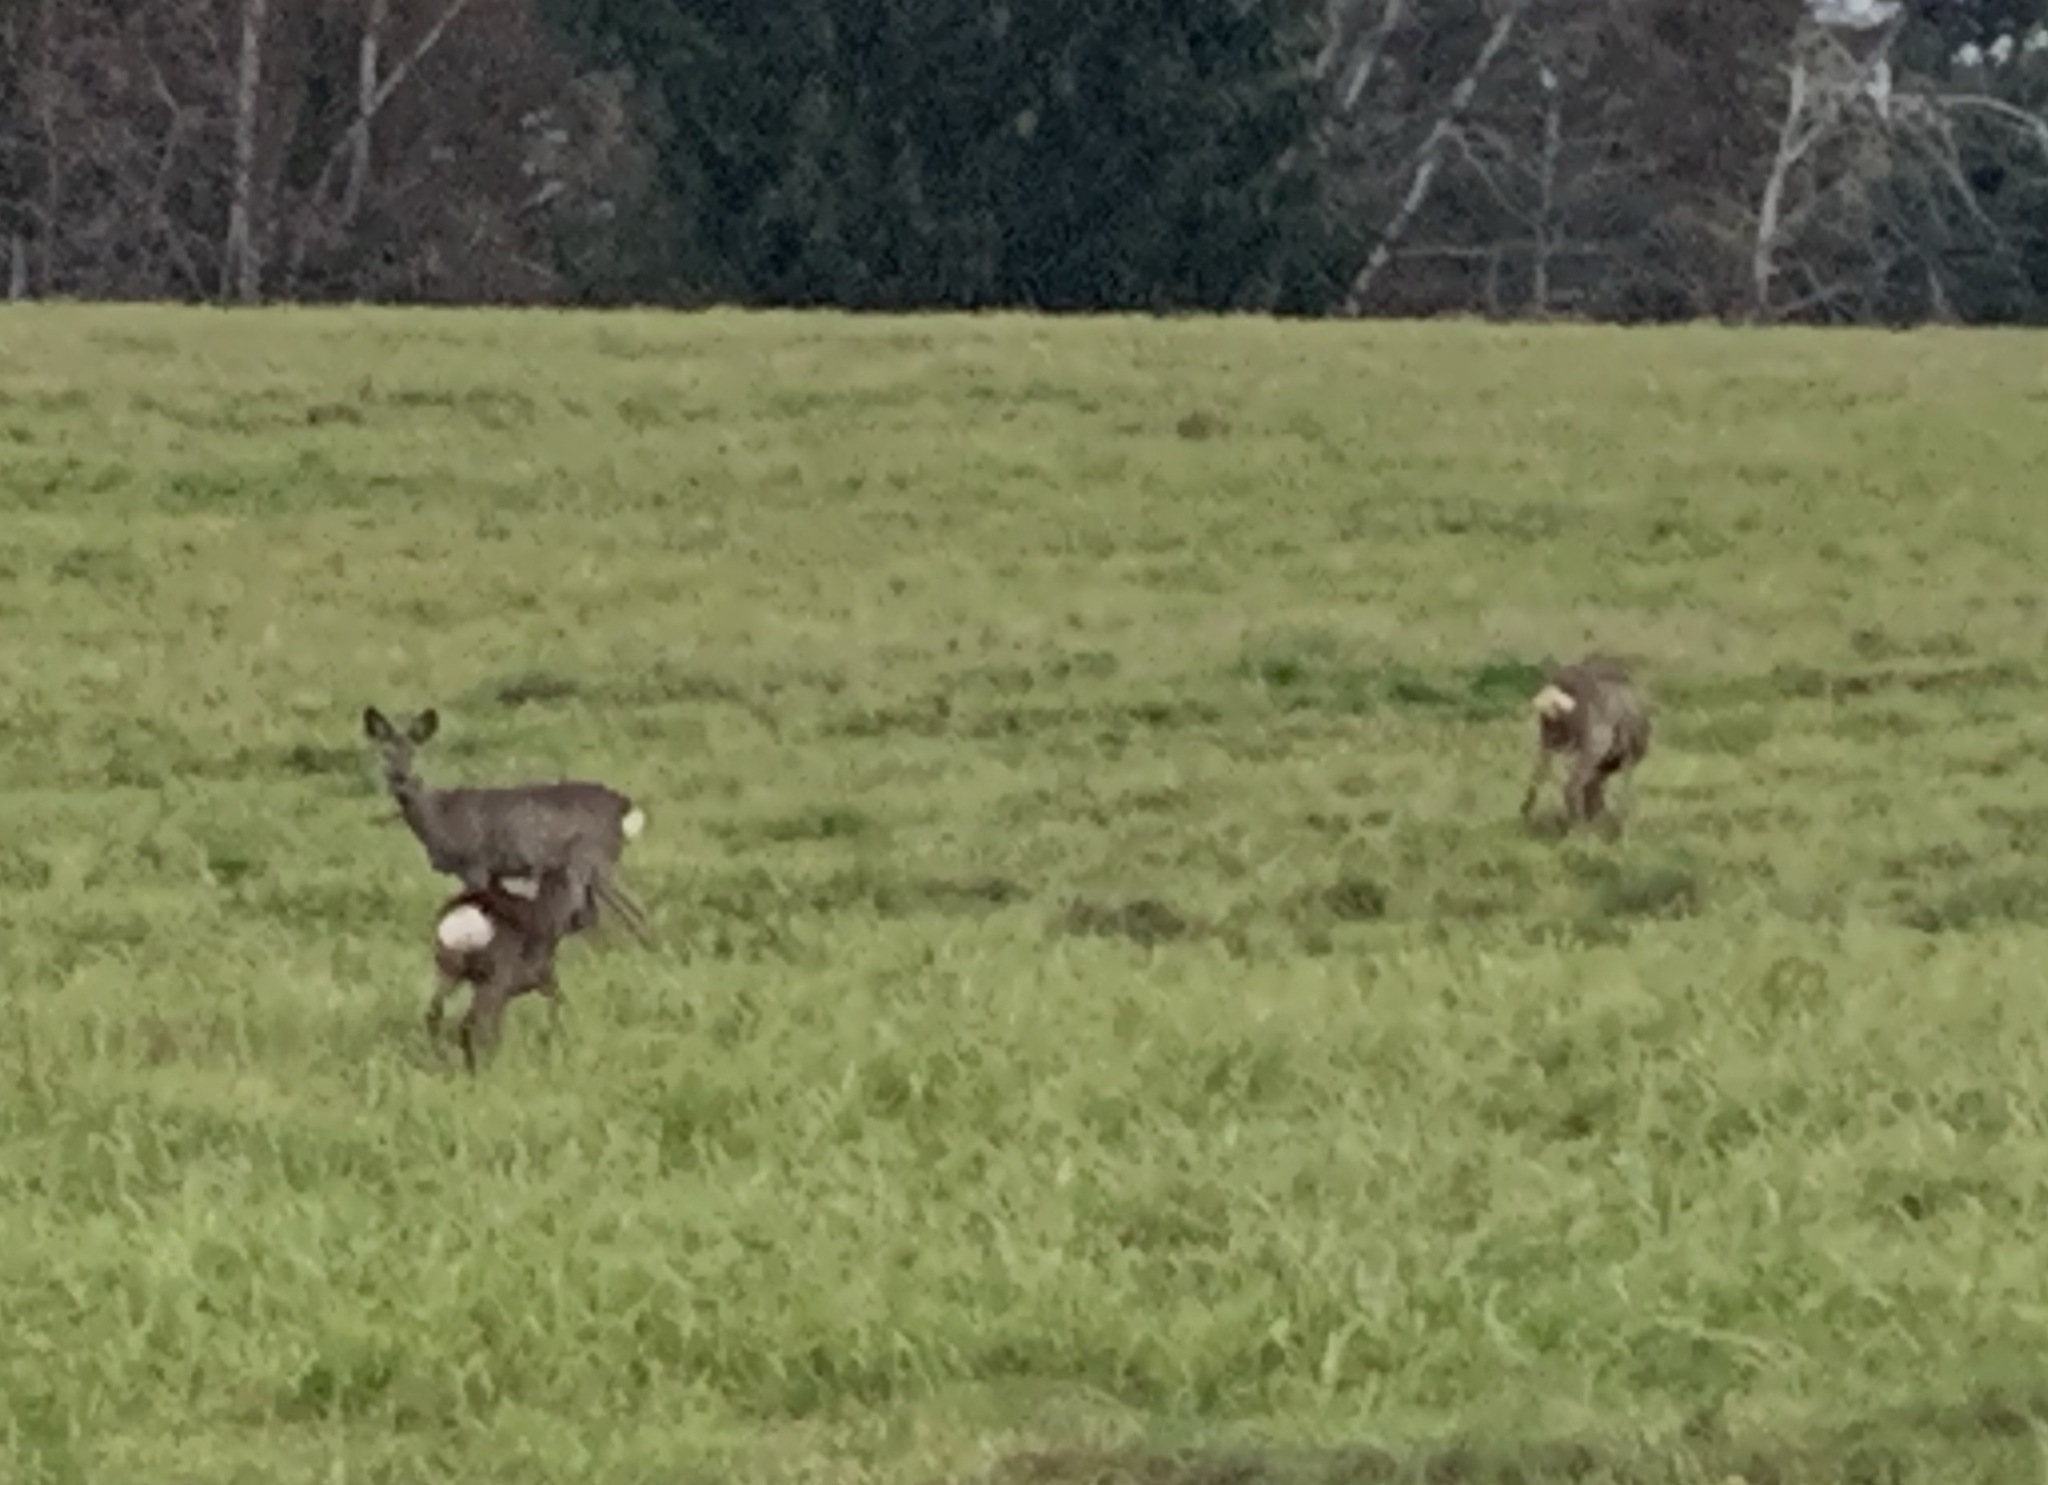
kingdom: Animalia
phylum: Chordata
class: Mammalia
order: Artiodactyla
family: Cervidae
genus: Capreolus
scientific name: Capreolus capreolus
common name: Western roe deer
